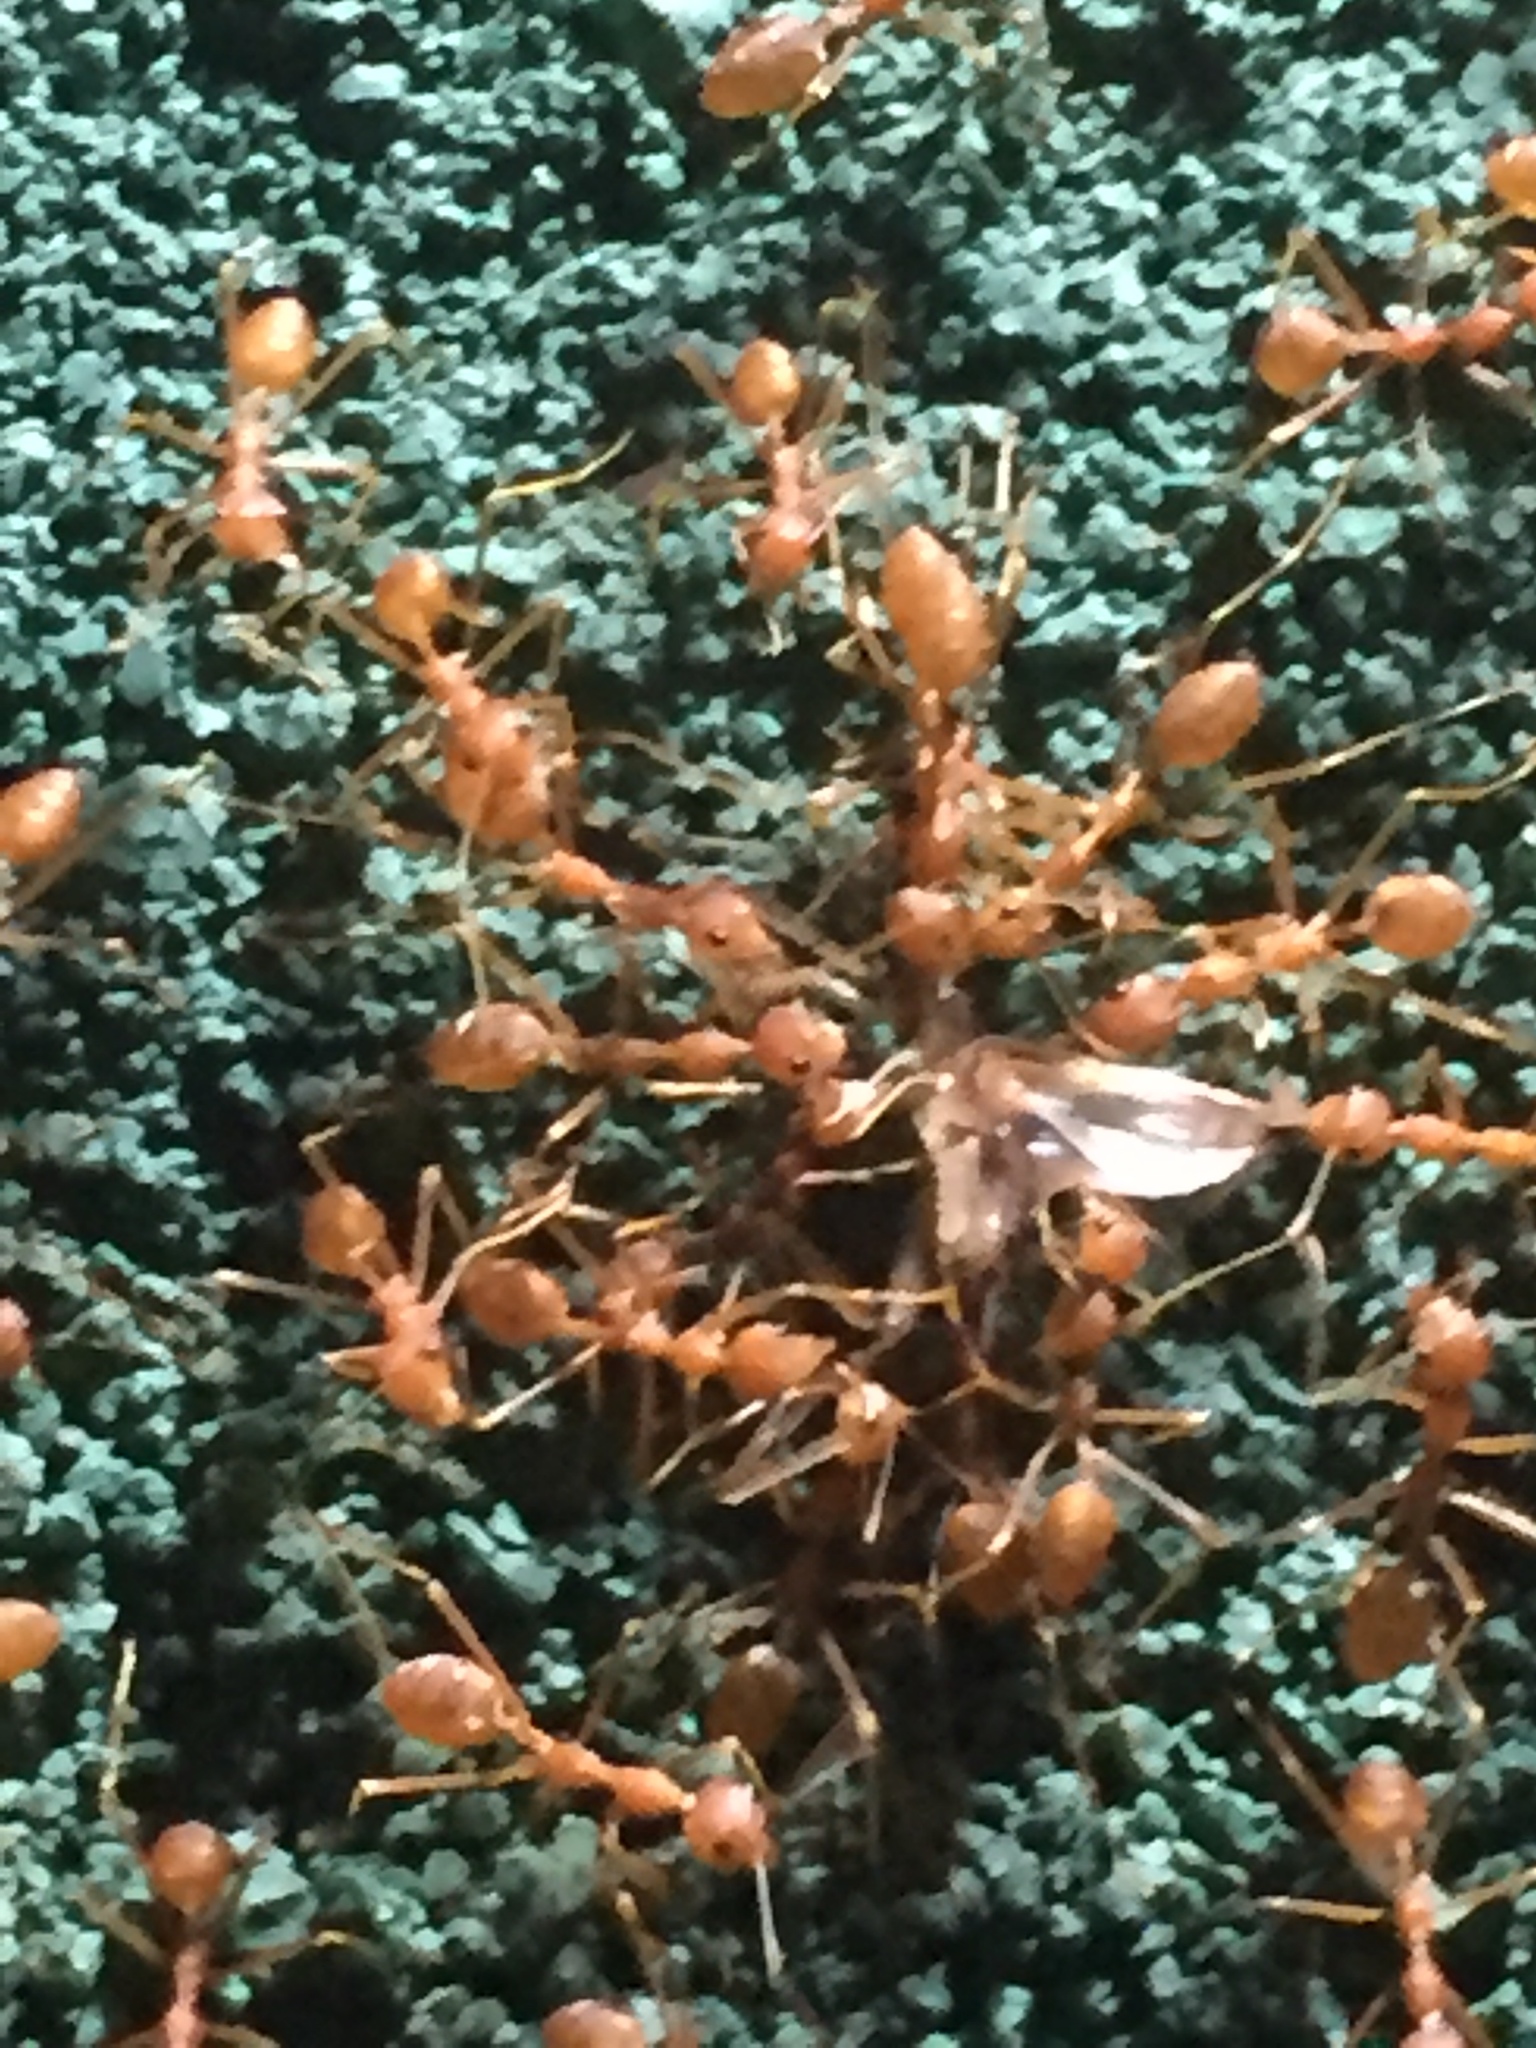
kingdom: Animalia
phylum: Arthropoda
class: Insecta
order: Hymenoptera
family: Formicidae
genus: Oecophylla
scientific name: Oecophylla smaragdina
